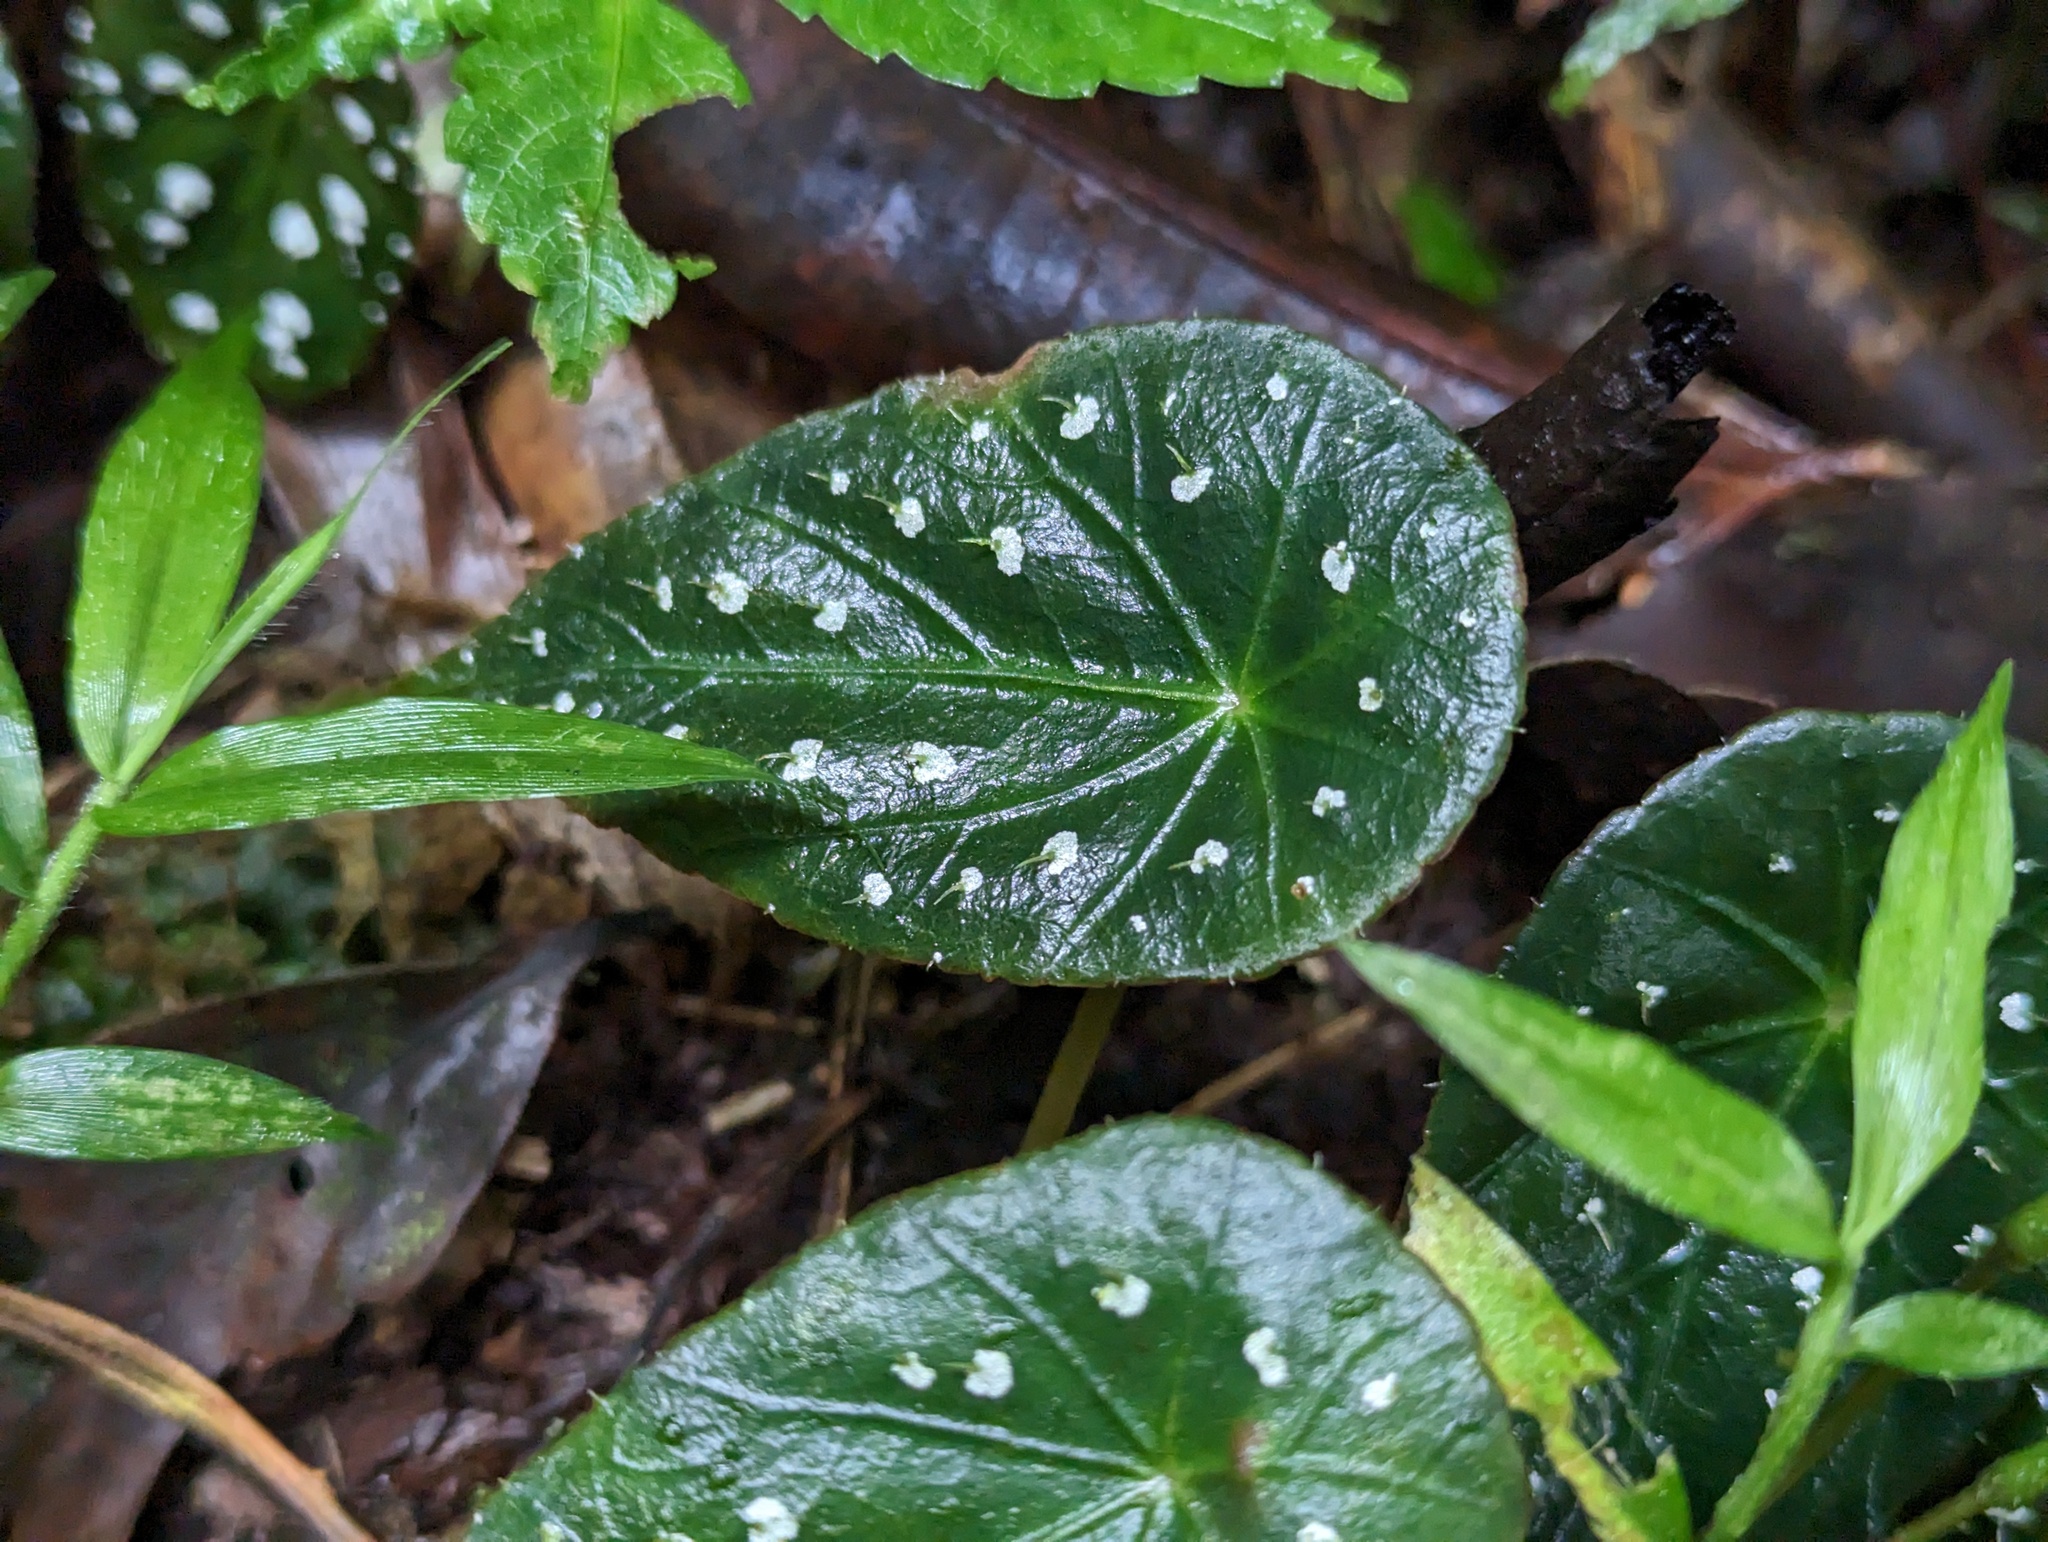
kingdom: Plantae
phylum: Tracheophyta
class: Magnoliopsida
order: Cucurbitales
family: Begoniaceae
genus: Begonia
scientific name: Begonia hitchcockii
